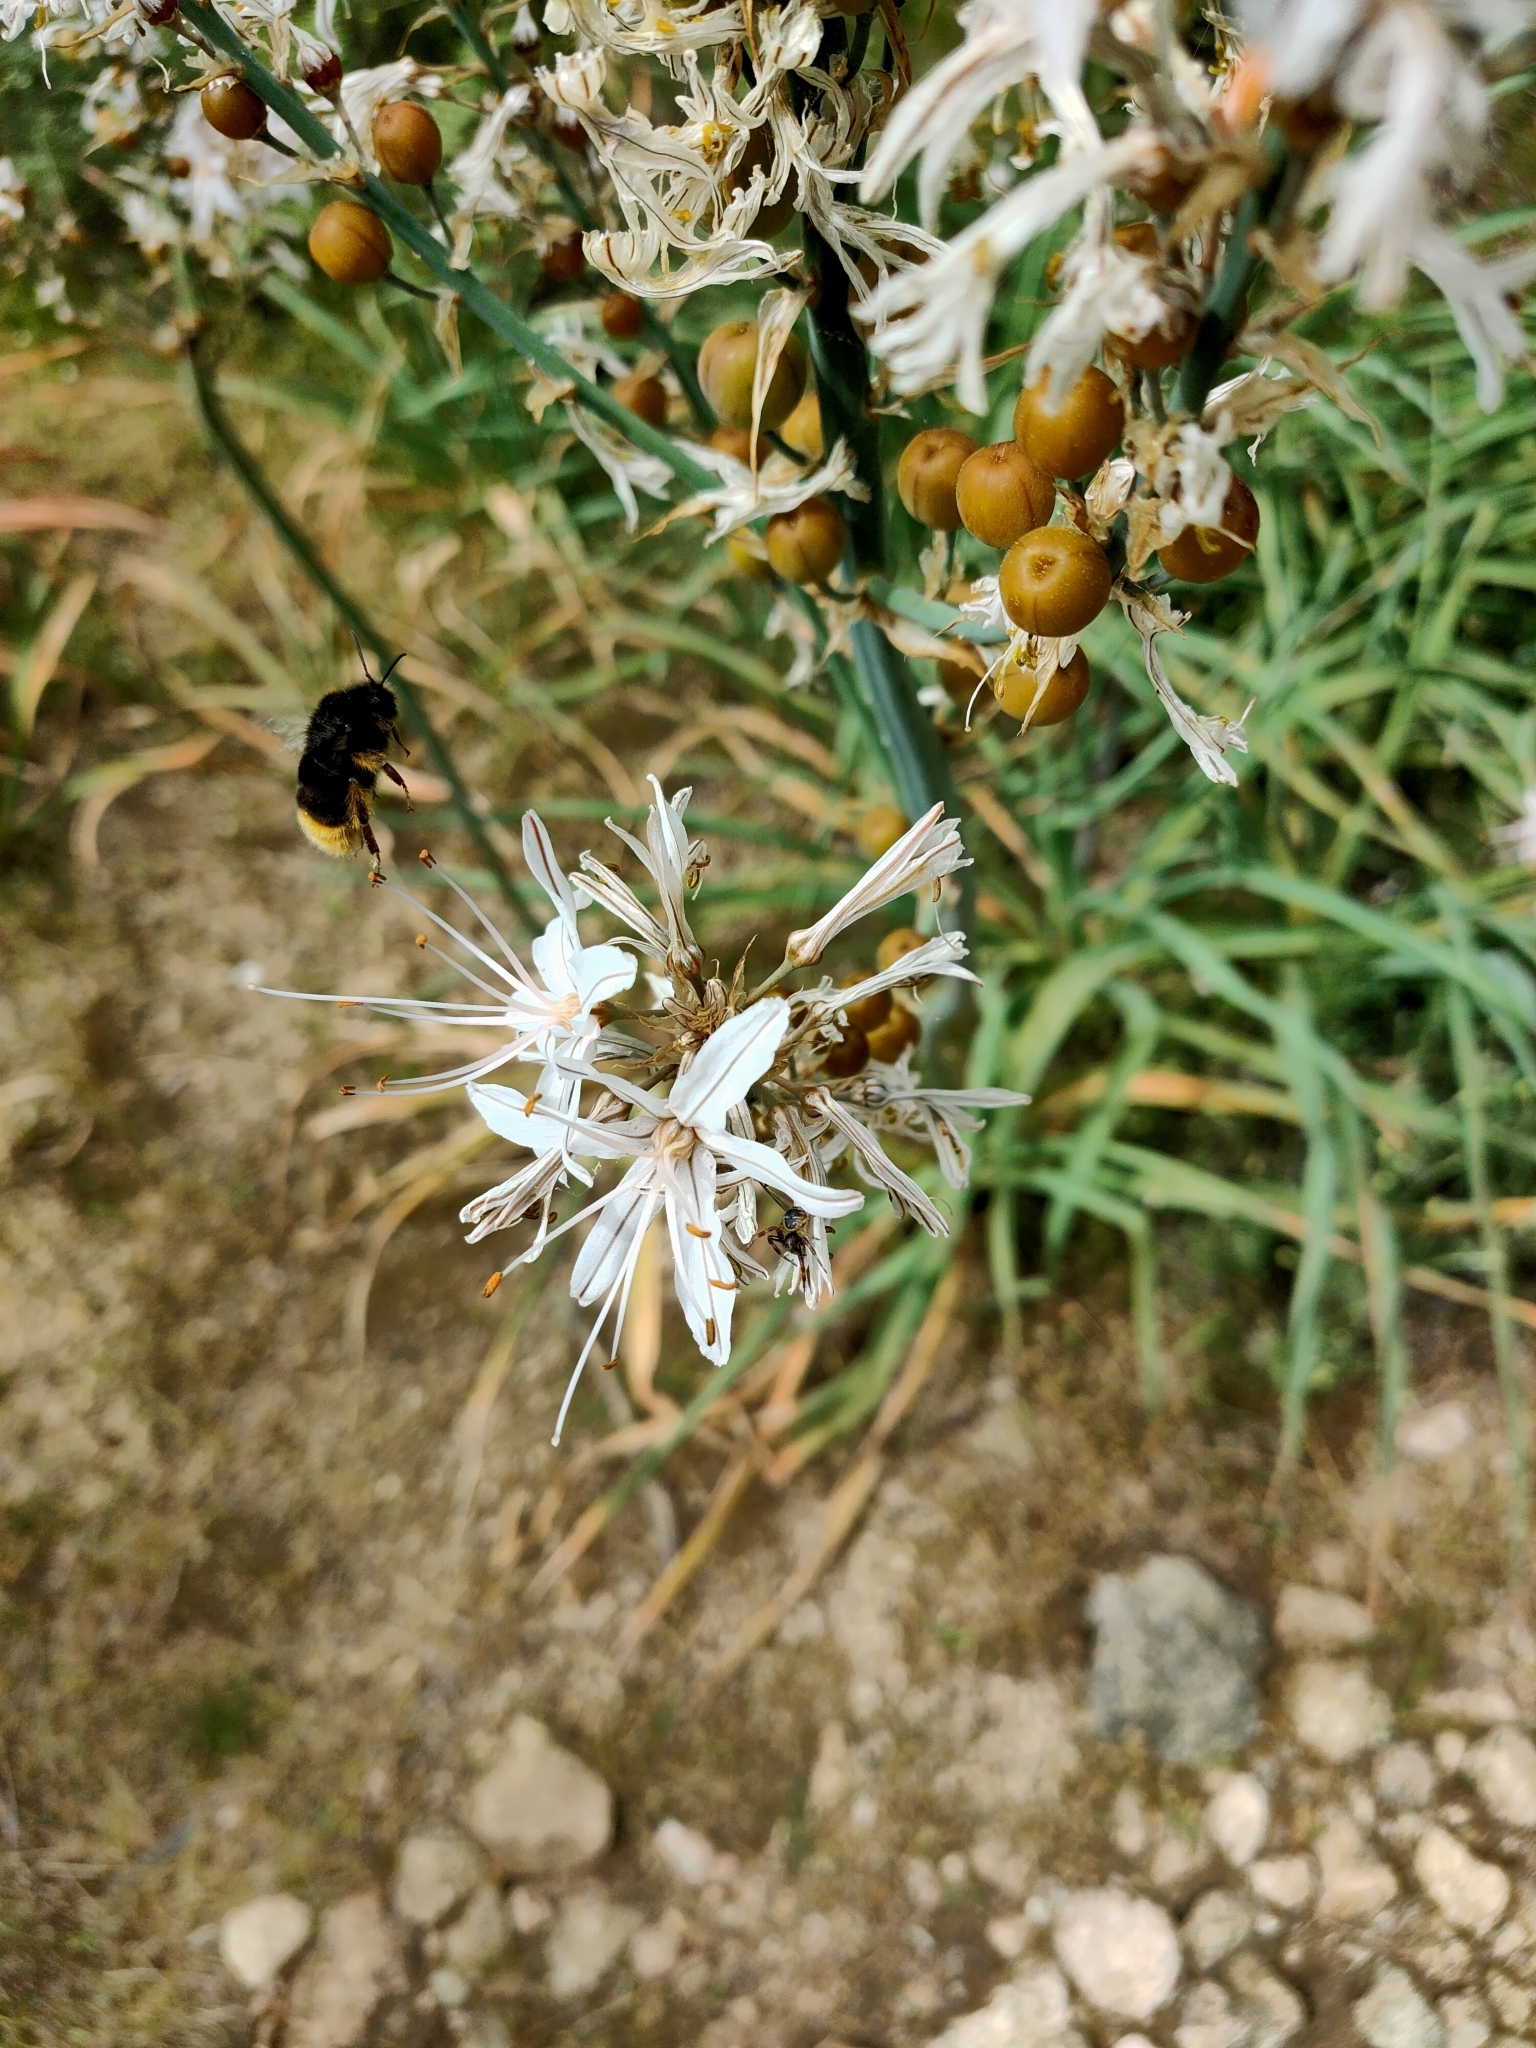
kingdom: Animalia
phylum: Arthropoda
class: Insecta
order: Hymenoptera
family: Apidae
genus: Bombus
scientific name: Bombus terrestris
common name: Buff-tailed bumblebee
